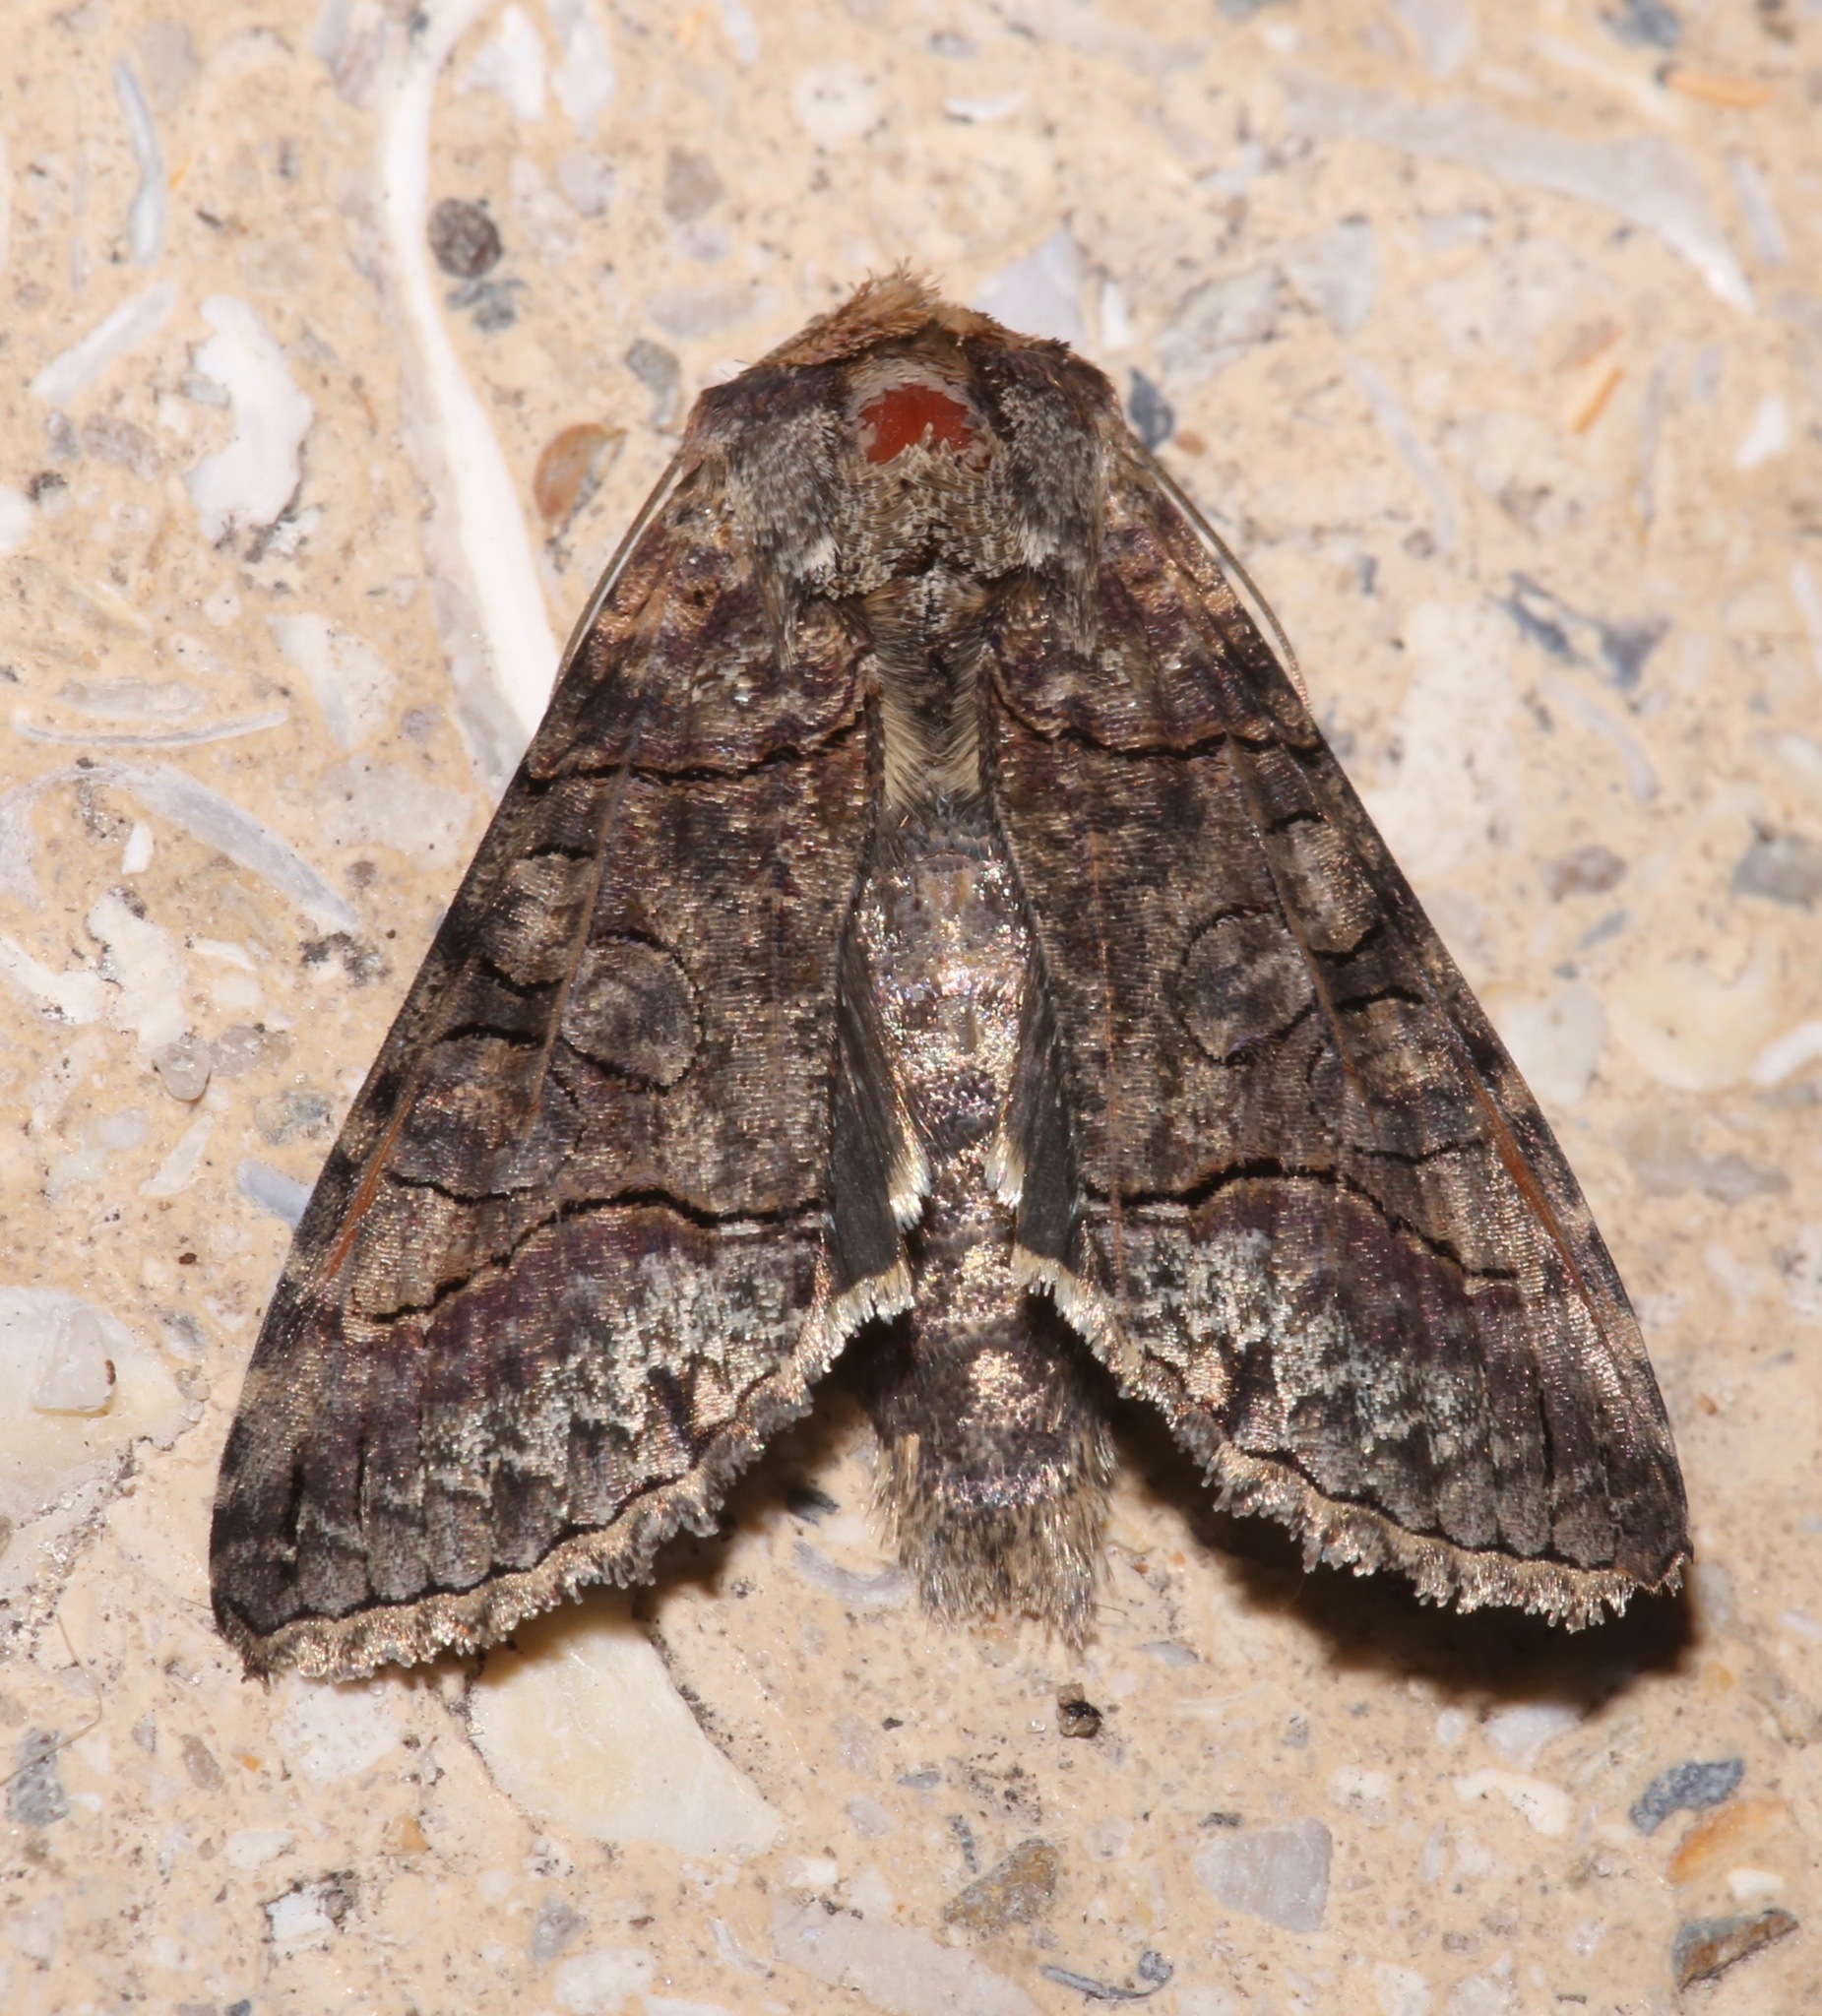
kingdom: Animalia
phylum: Arthropoda
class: Insecta
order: Lepidoptera
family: Noctuidae
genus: Mouralia
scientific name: Mouralia tinctoides
